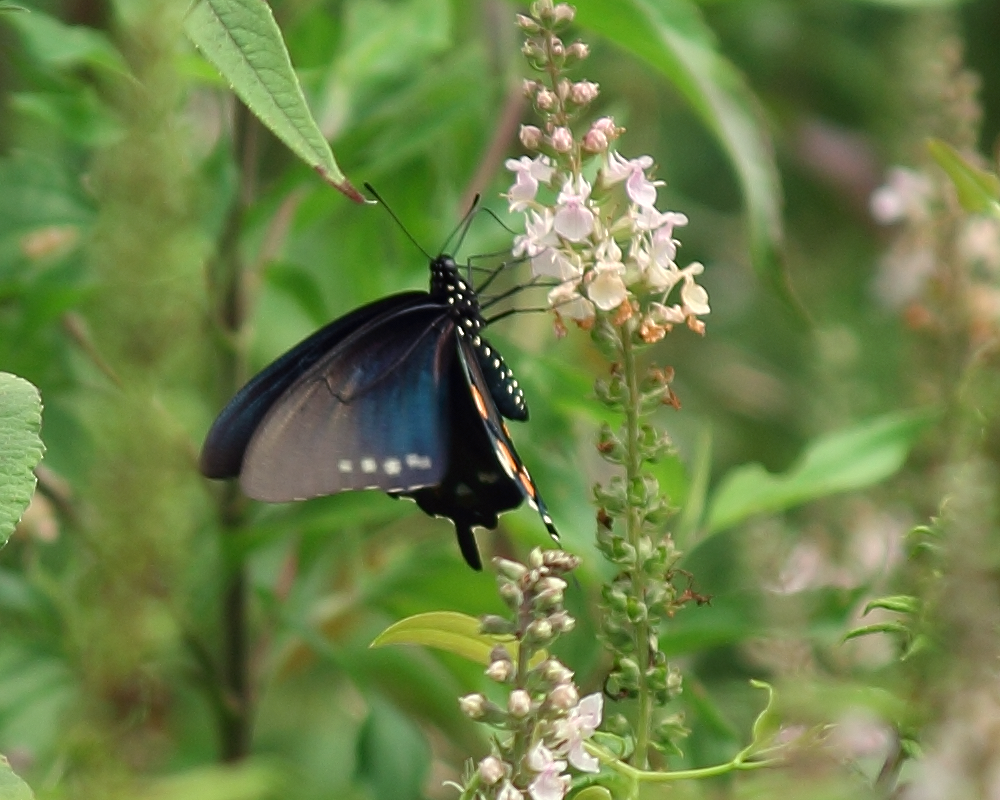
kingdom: Animalia
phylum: Arthropoda
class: Insecta
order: Lepidoptera
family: Papilionidae
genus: Battus
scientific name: Battus philenor
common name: Pipevine swallowtail
